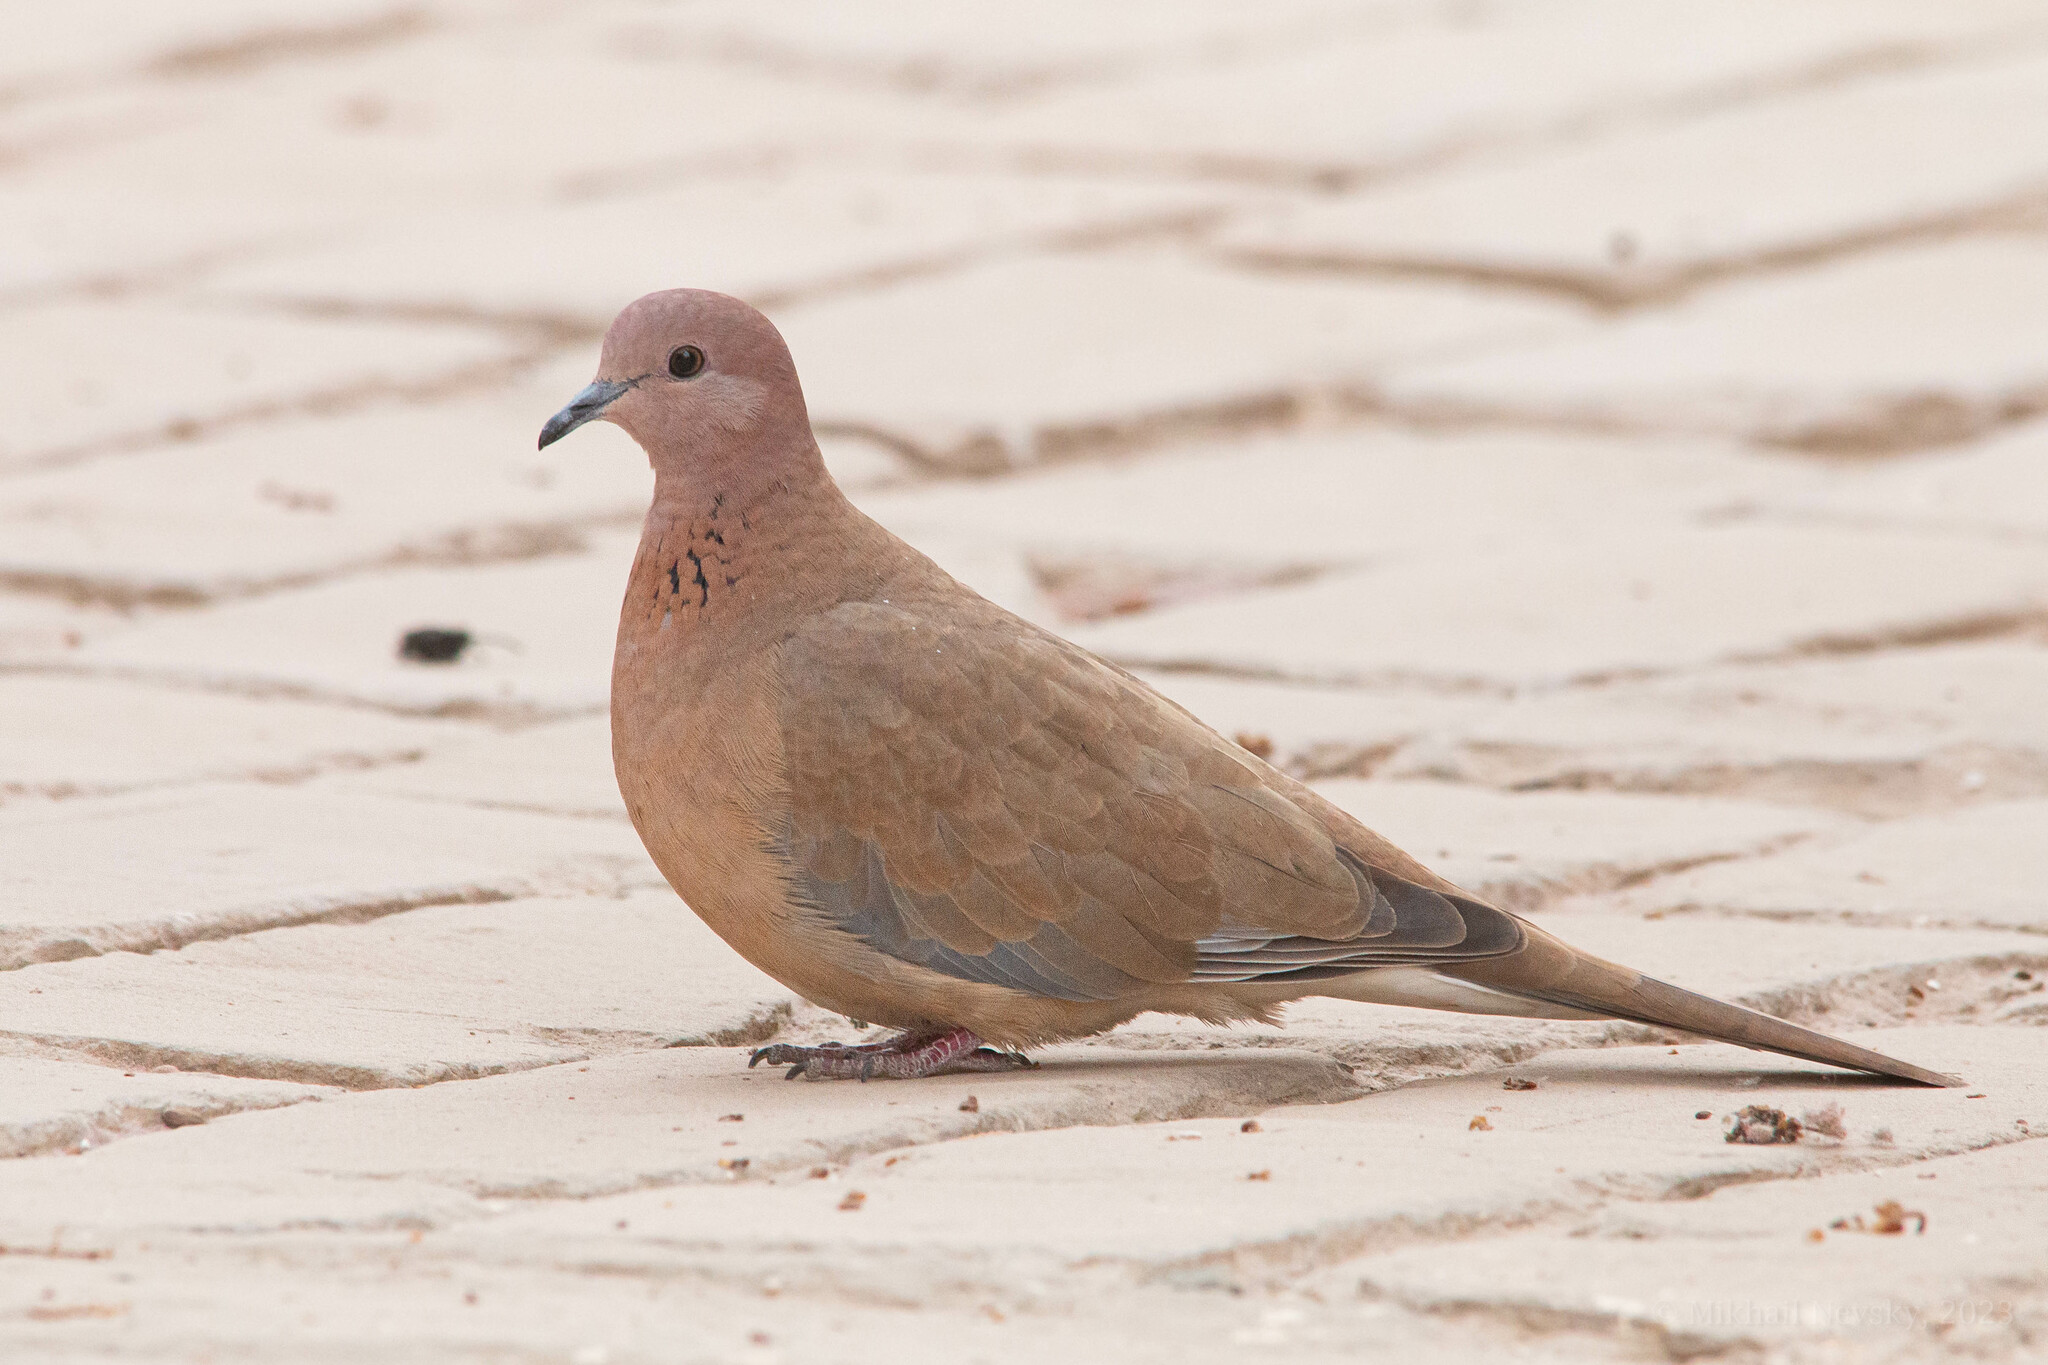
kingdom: Animalia
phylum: Chordata
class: Aves
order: Columbiformes
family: Columbidae
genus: Spilopelia
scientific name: Spilopelia senegalensis
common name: Laughing dove
